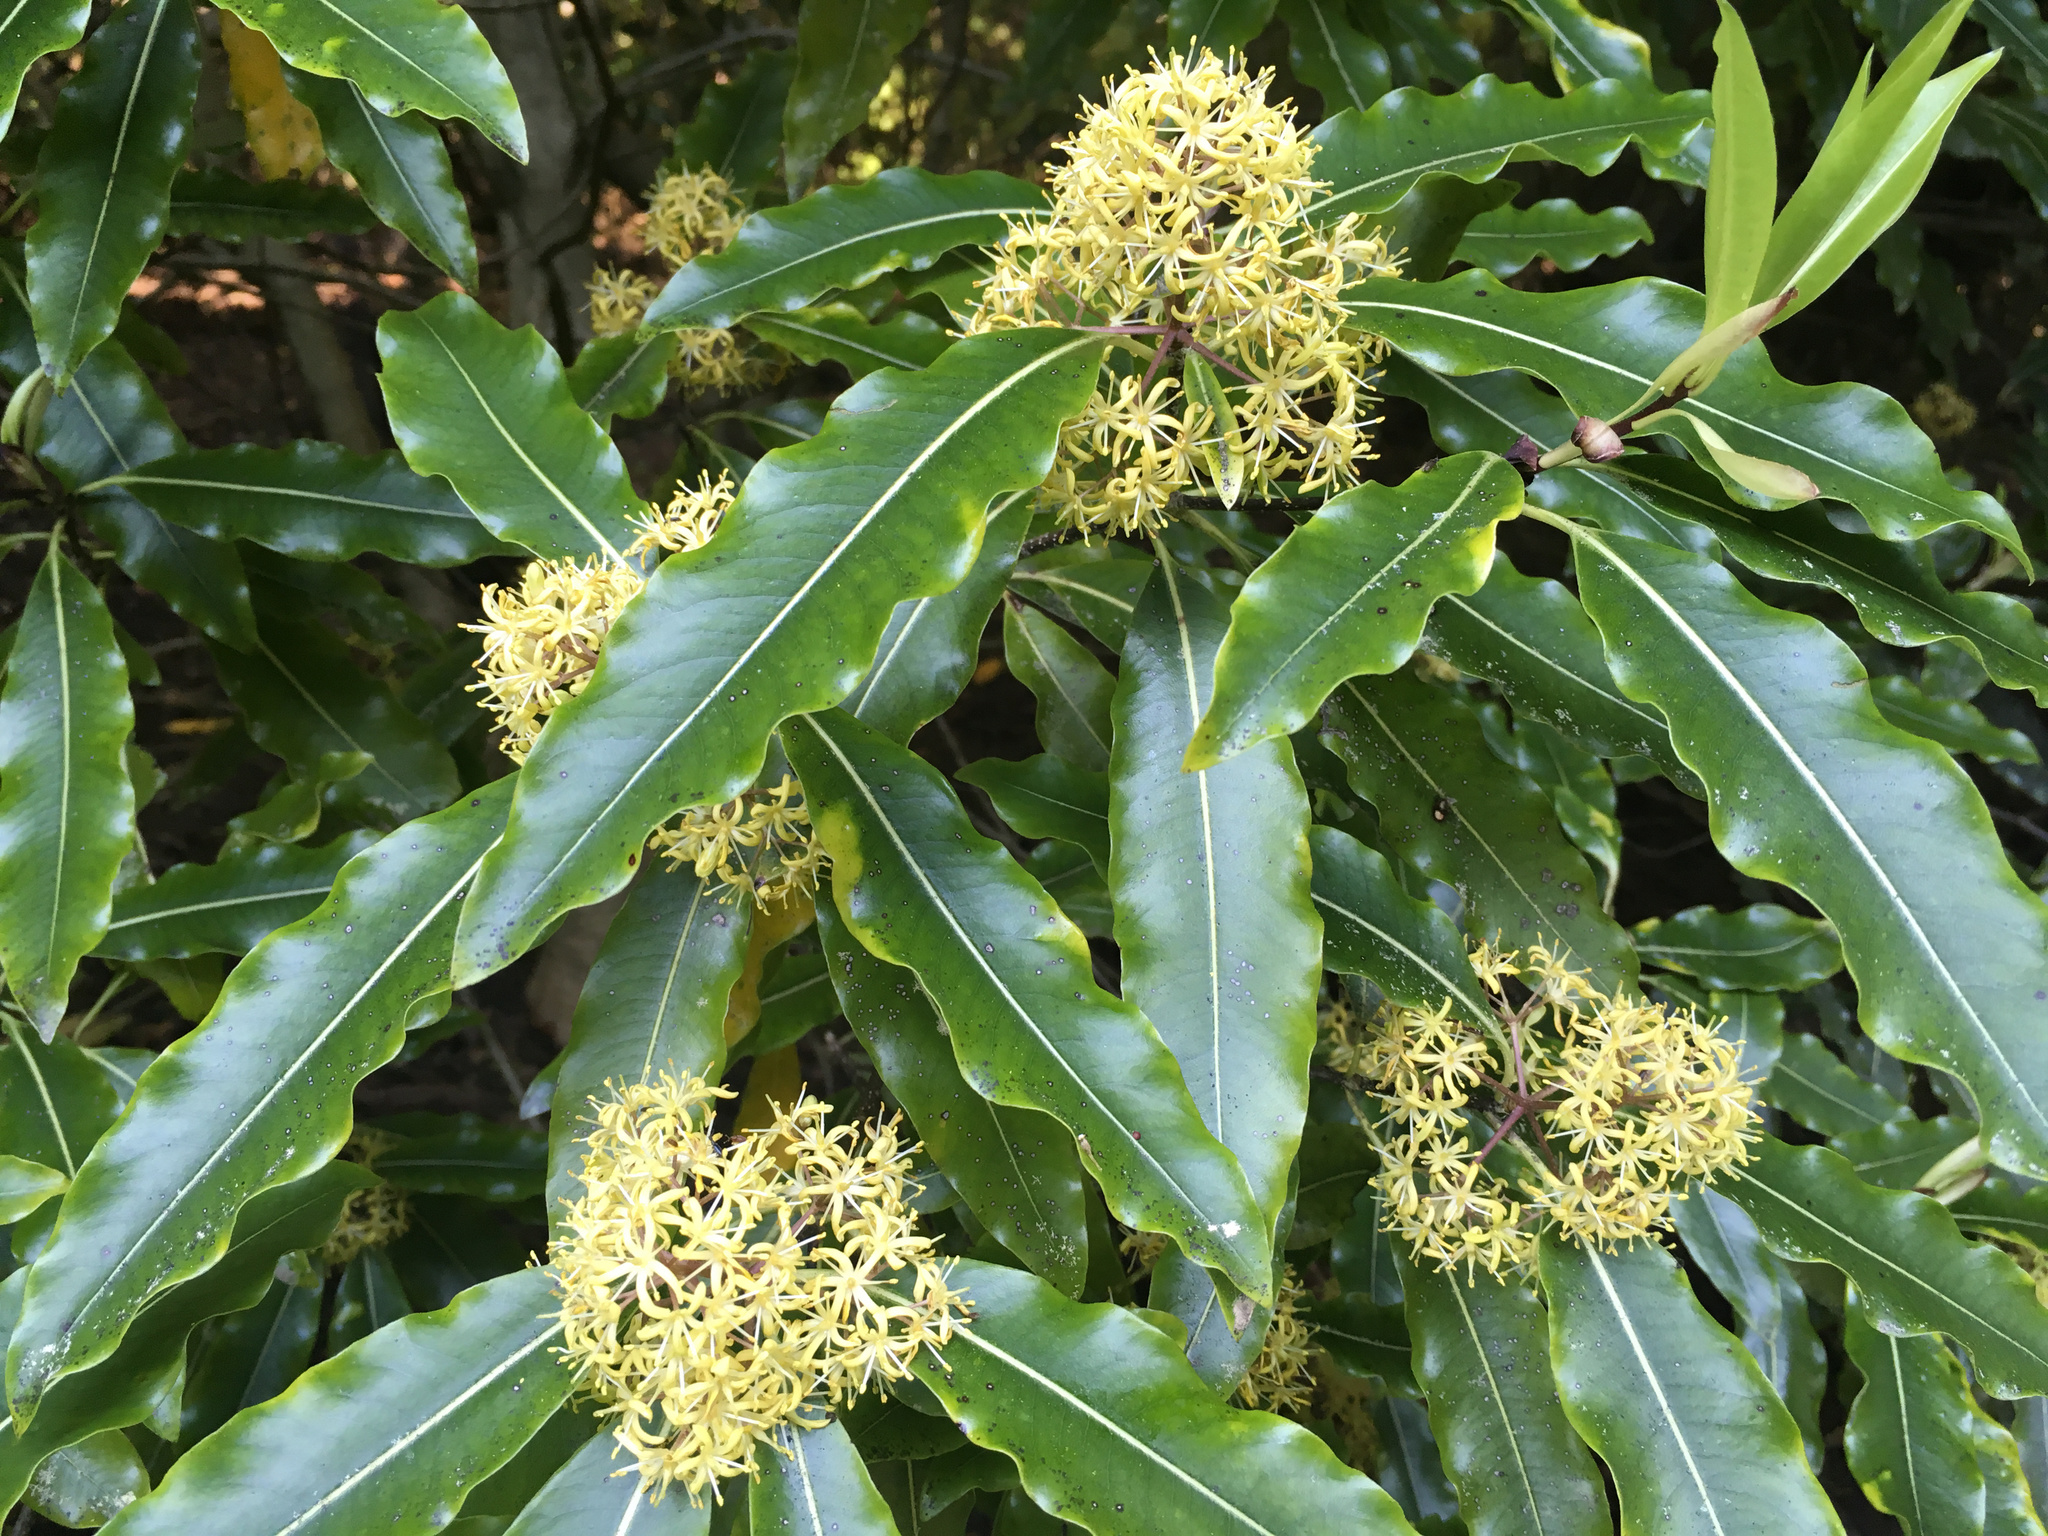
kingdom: Plantae
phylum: Tracheophyta
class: Magnoliopsida
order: Apiales
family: Pittosporaceae
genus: Pittosporum
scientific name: Pittosporum eugenioides
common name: Lemonwood
